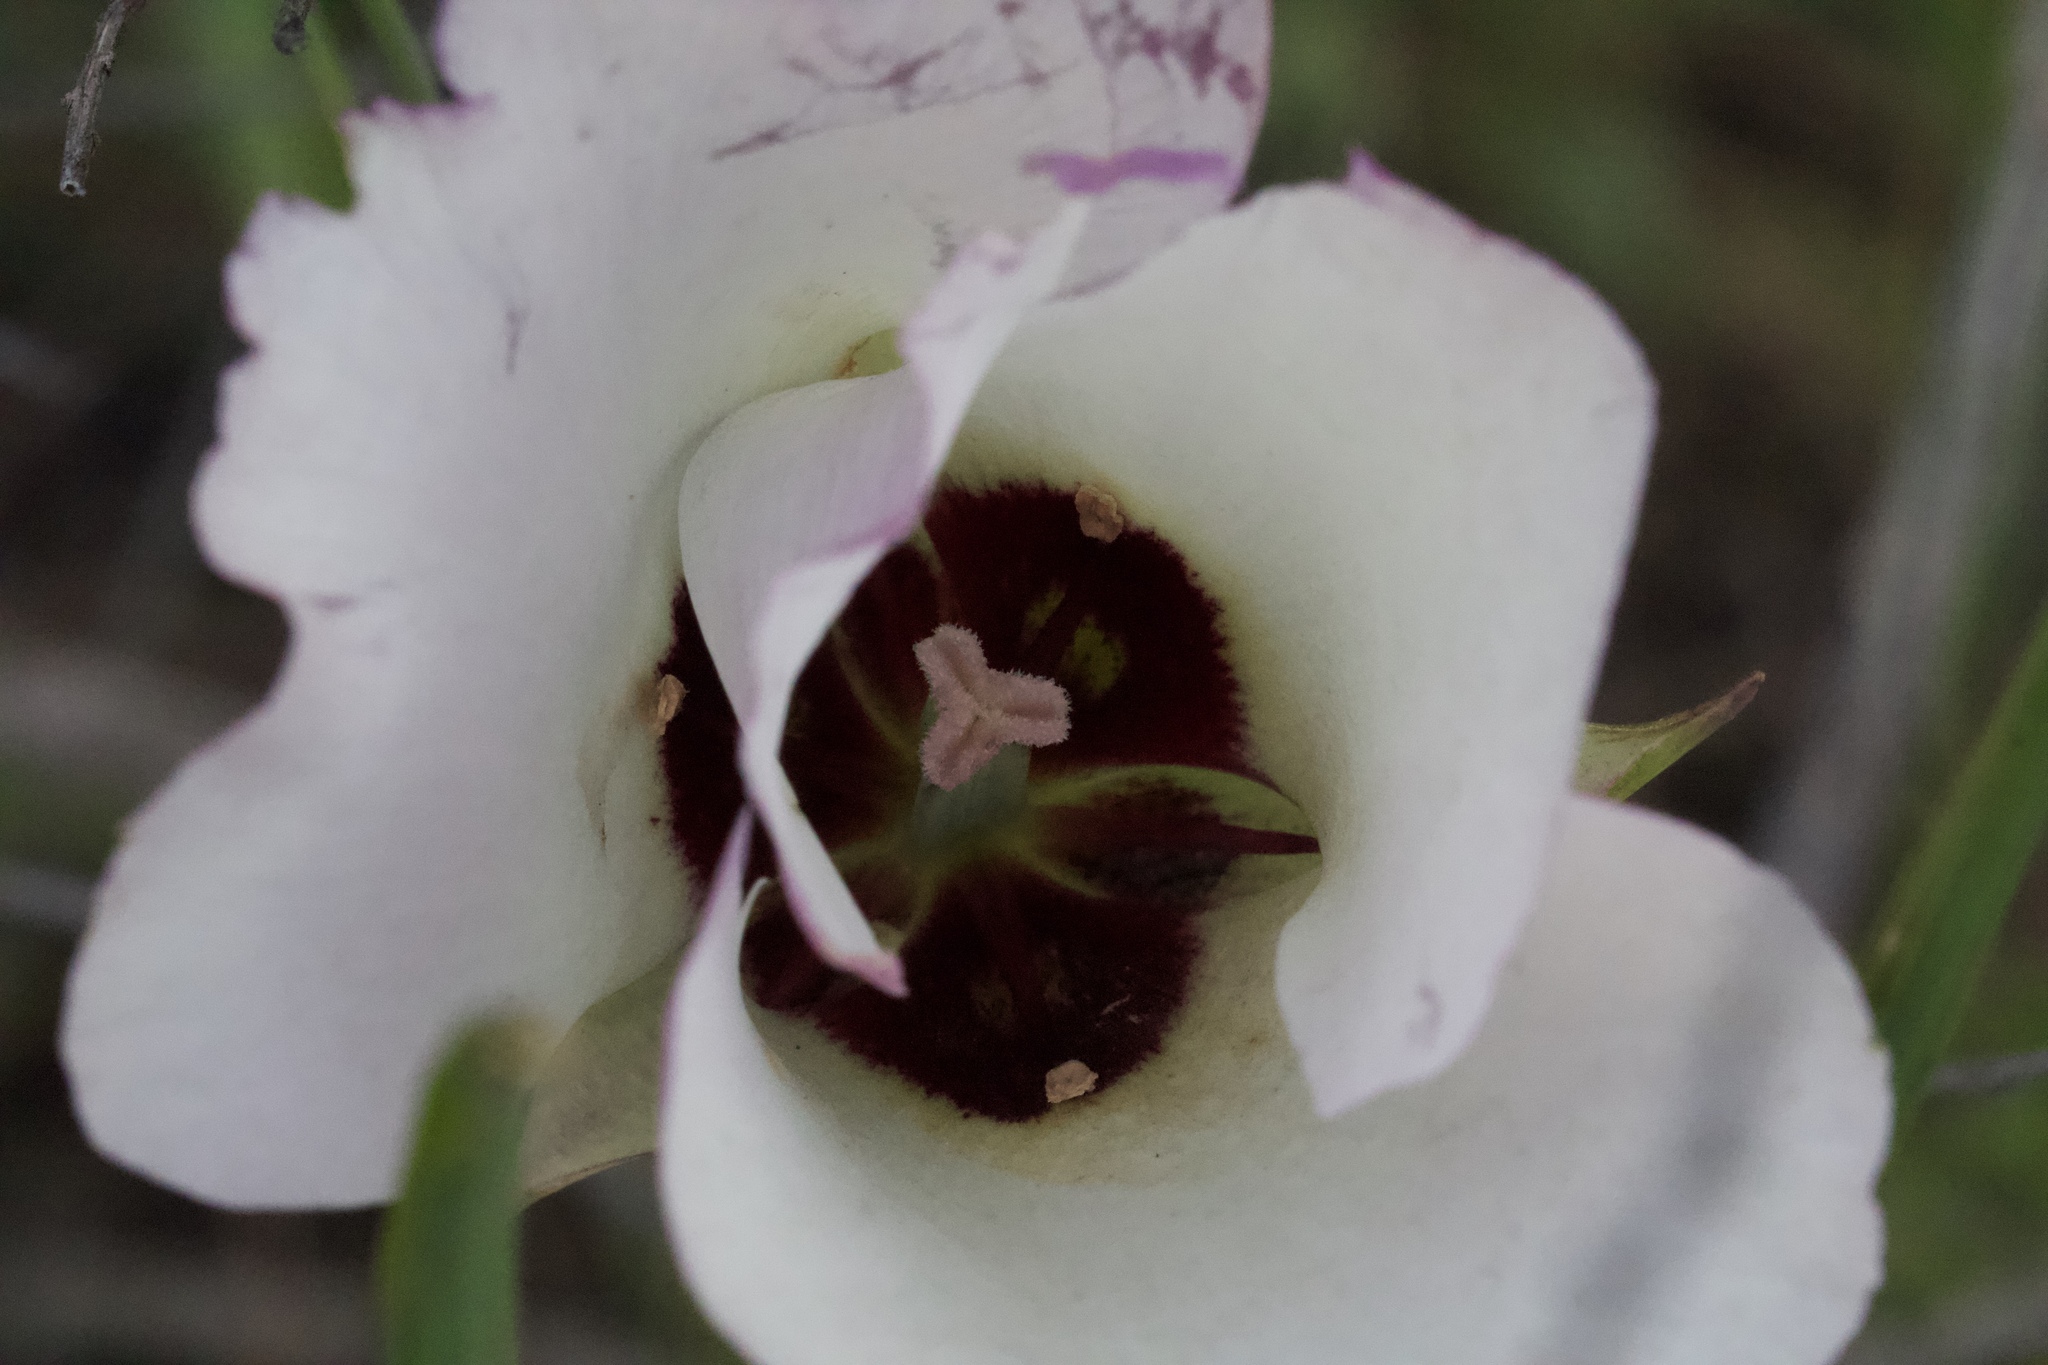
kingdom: Plantae
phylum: Tracheophyta
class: Liliopsida
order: Liliales
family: Liliaceae
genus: Calochortus
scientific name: Calochortus catalinae
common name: Catalina mariposa-lily
